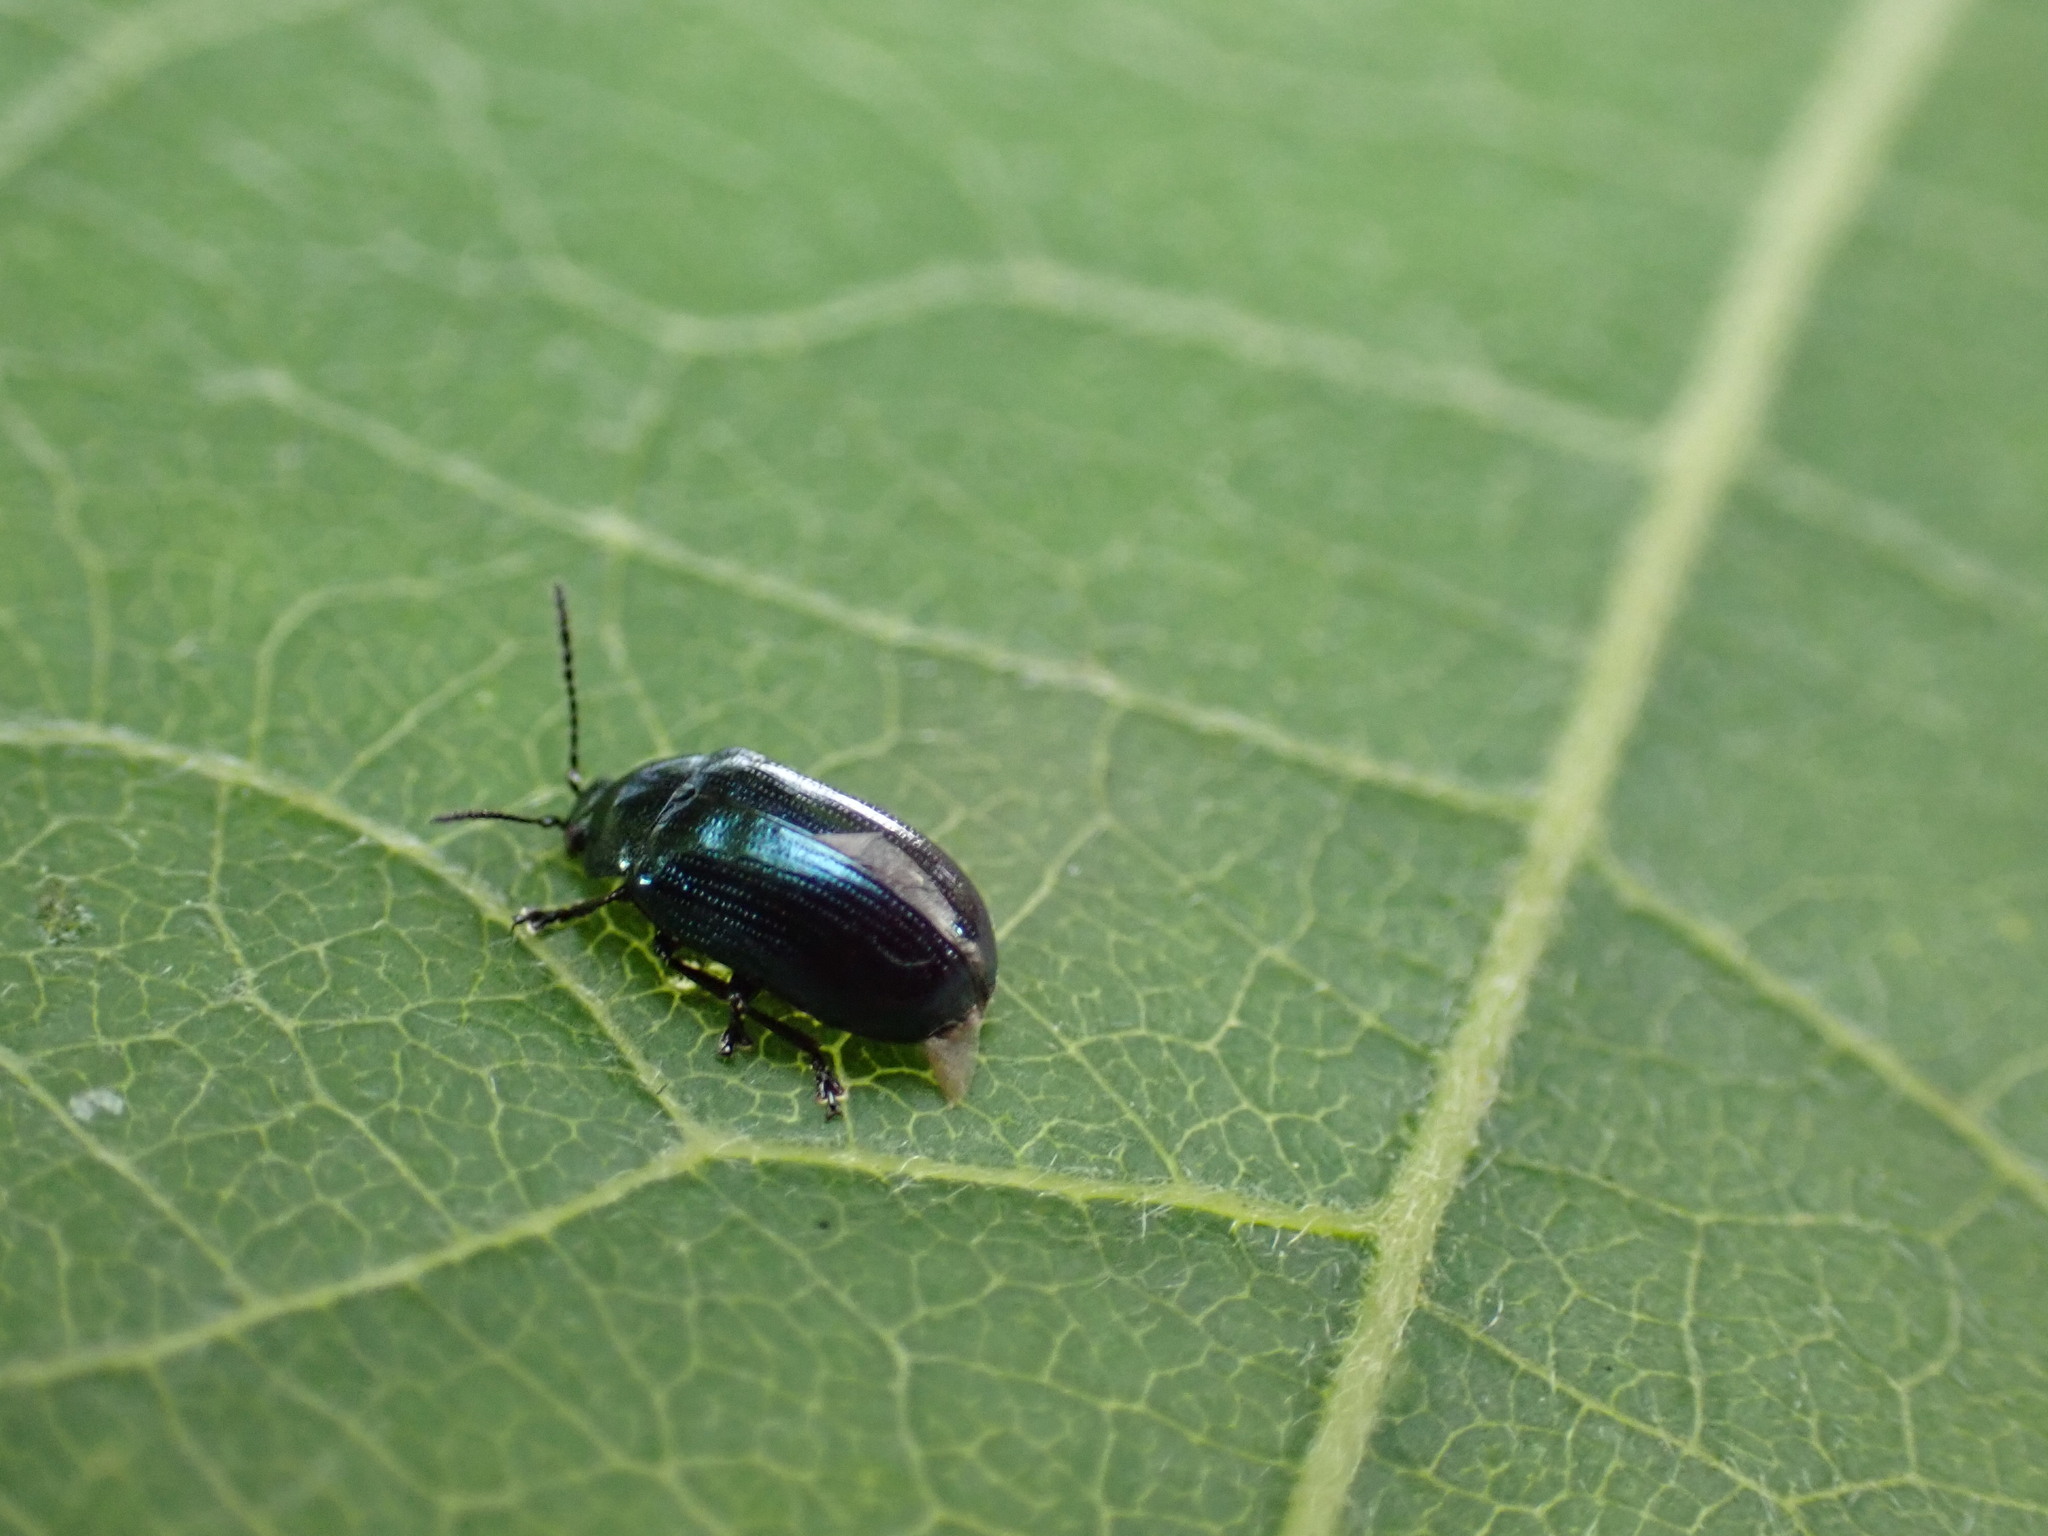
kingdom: Animalia
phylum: Arthropoda
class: Insecta
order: Coleoptera
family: Chrysomelidae
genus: Phratora
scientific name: Phratora laticollis
